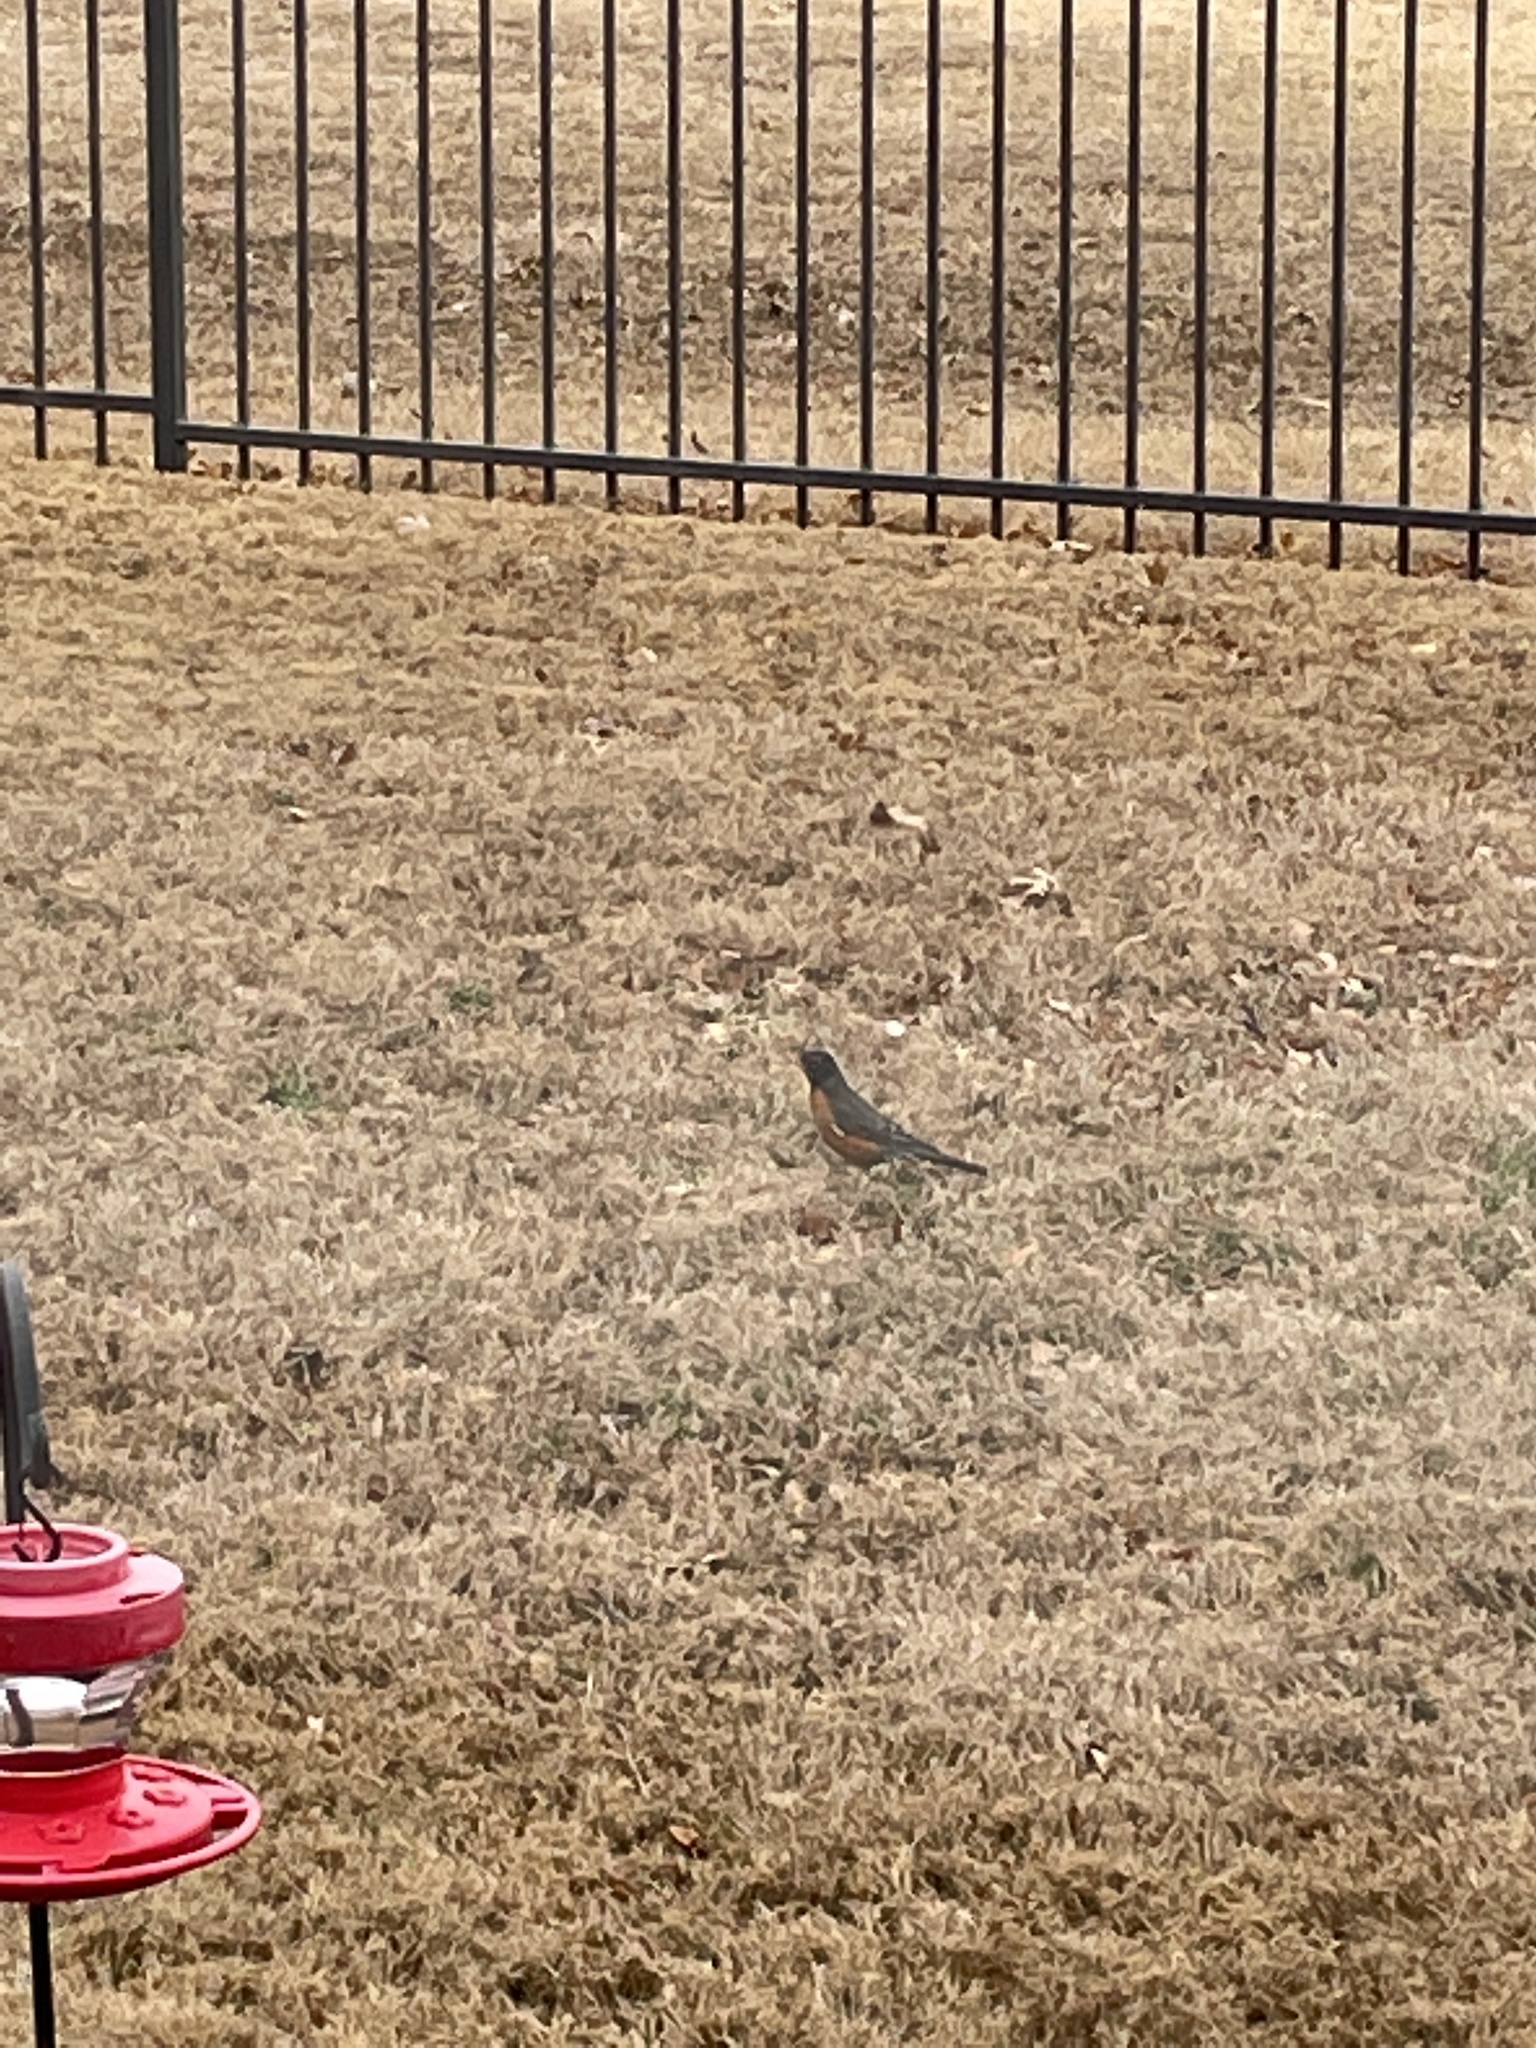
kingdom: Animalia
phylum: Chordata
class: Aves
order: Passeriformes
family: Turdidae
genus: Turdus
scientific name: Turdus migratorius
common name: American robin
